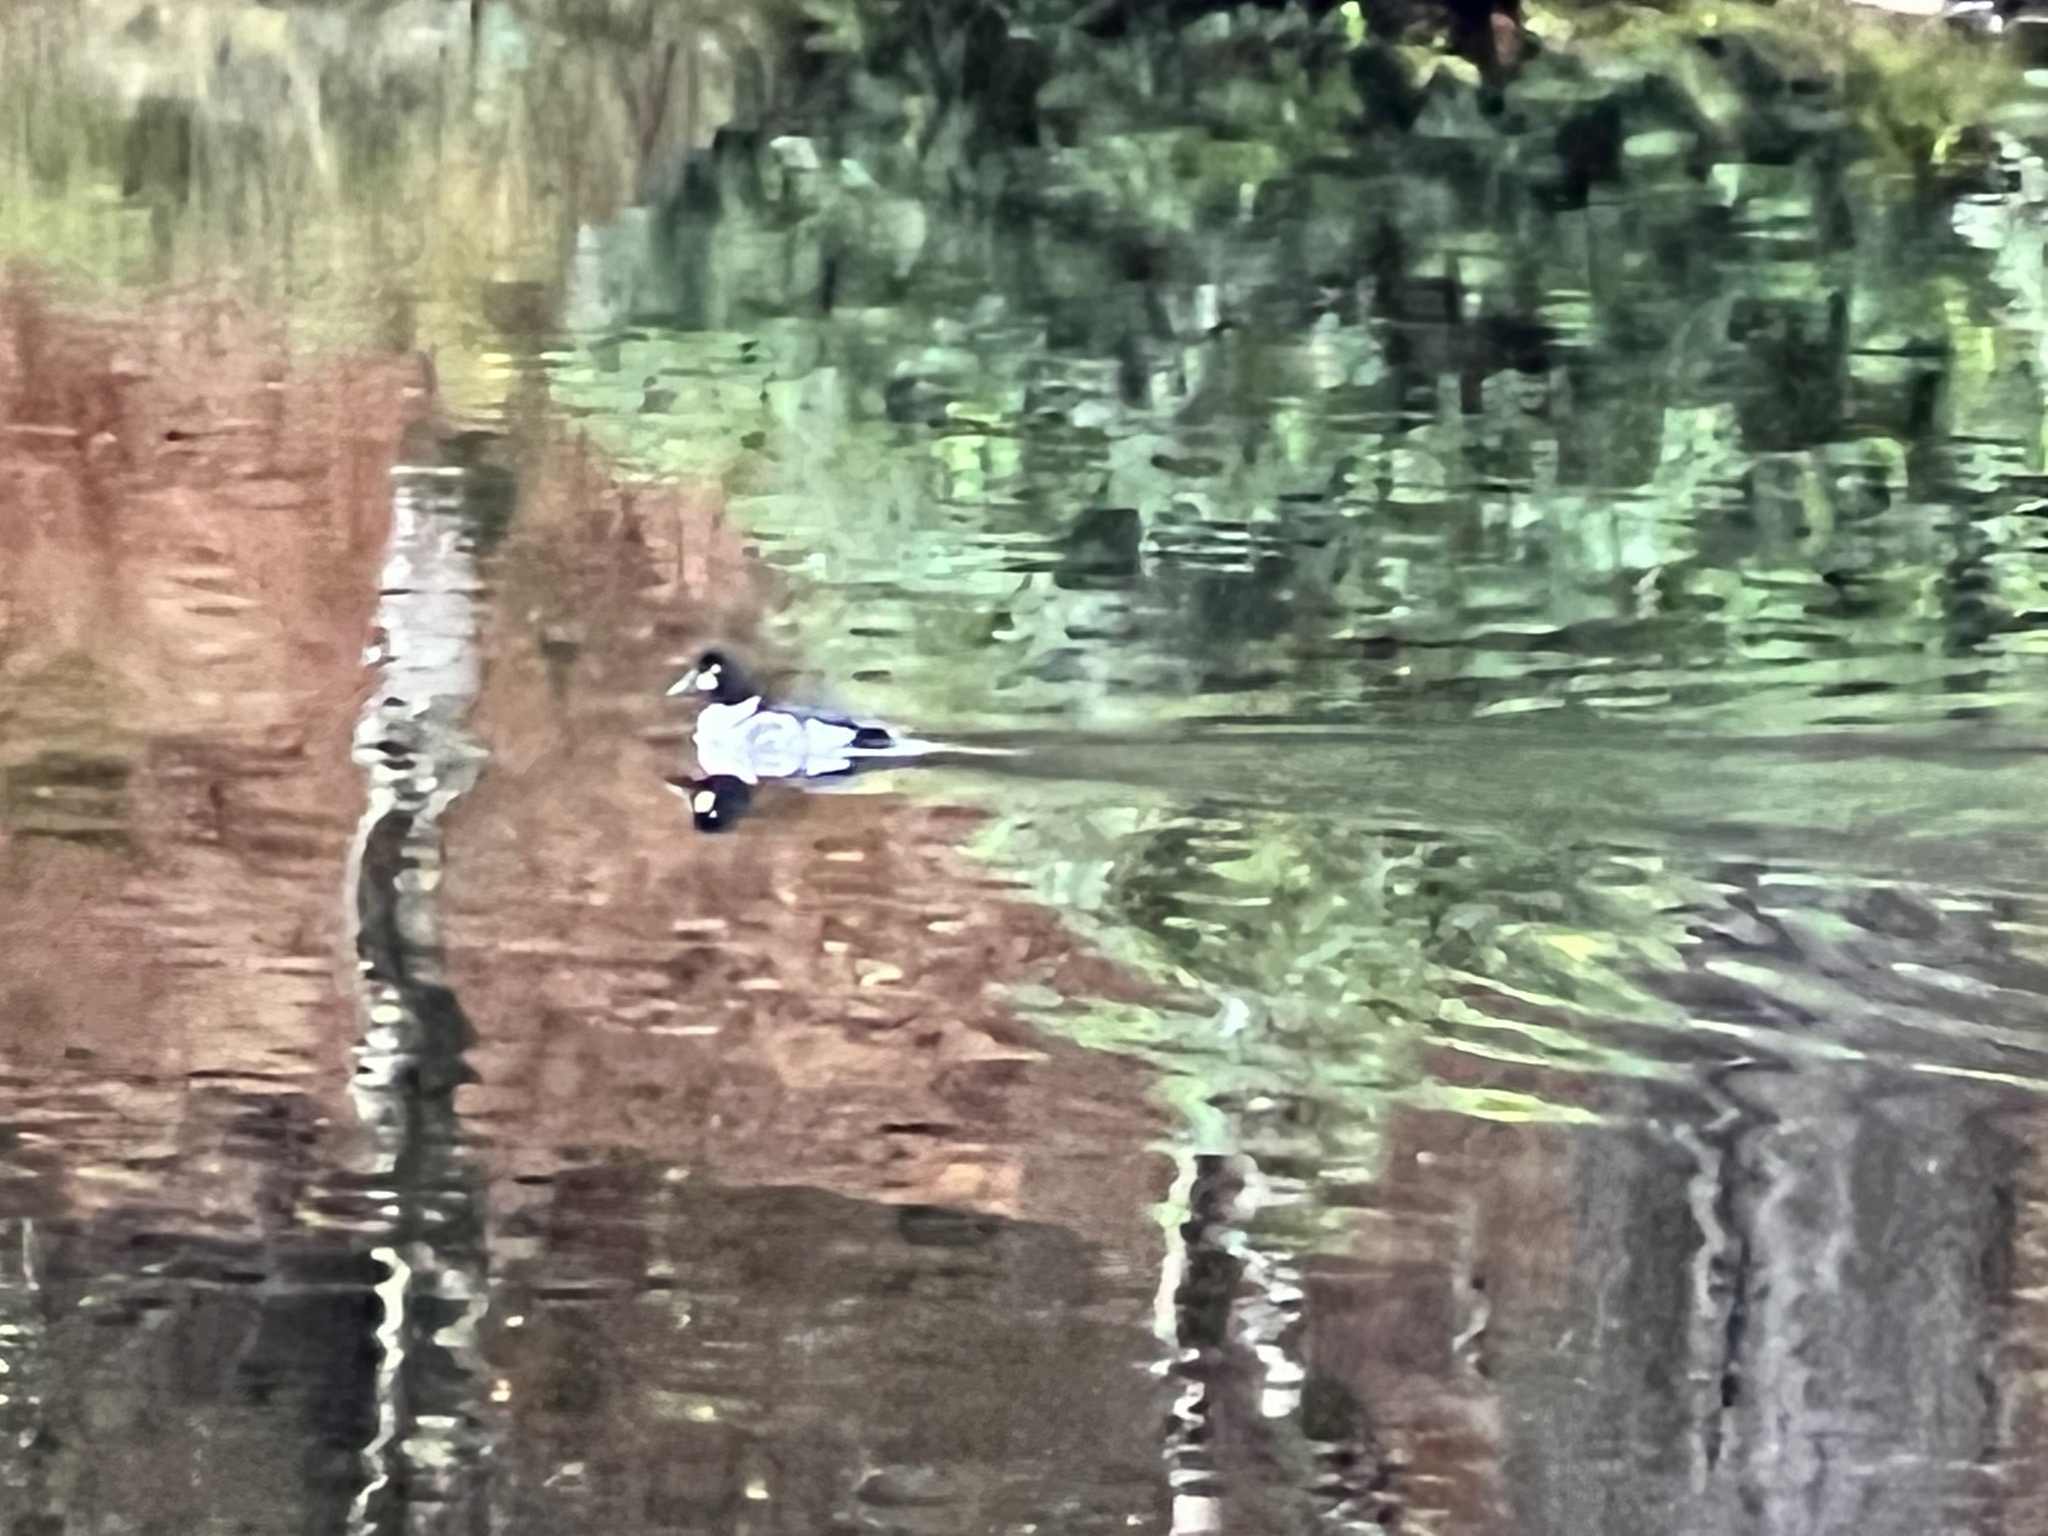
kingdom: Animalia
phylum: Chordata
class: Aves
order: Anseriformes
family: Anatidae
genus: Bucephala
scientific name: Bucephala clangula
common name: Common goldeneye
